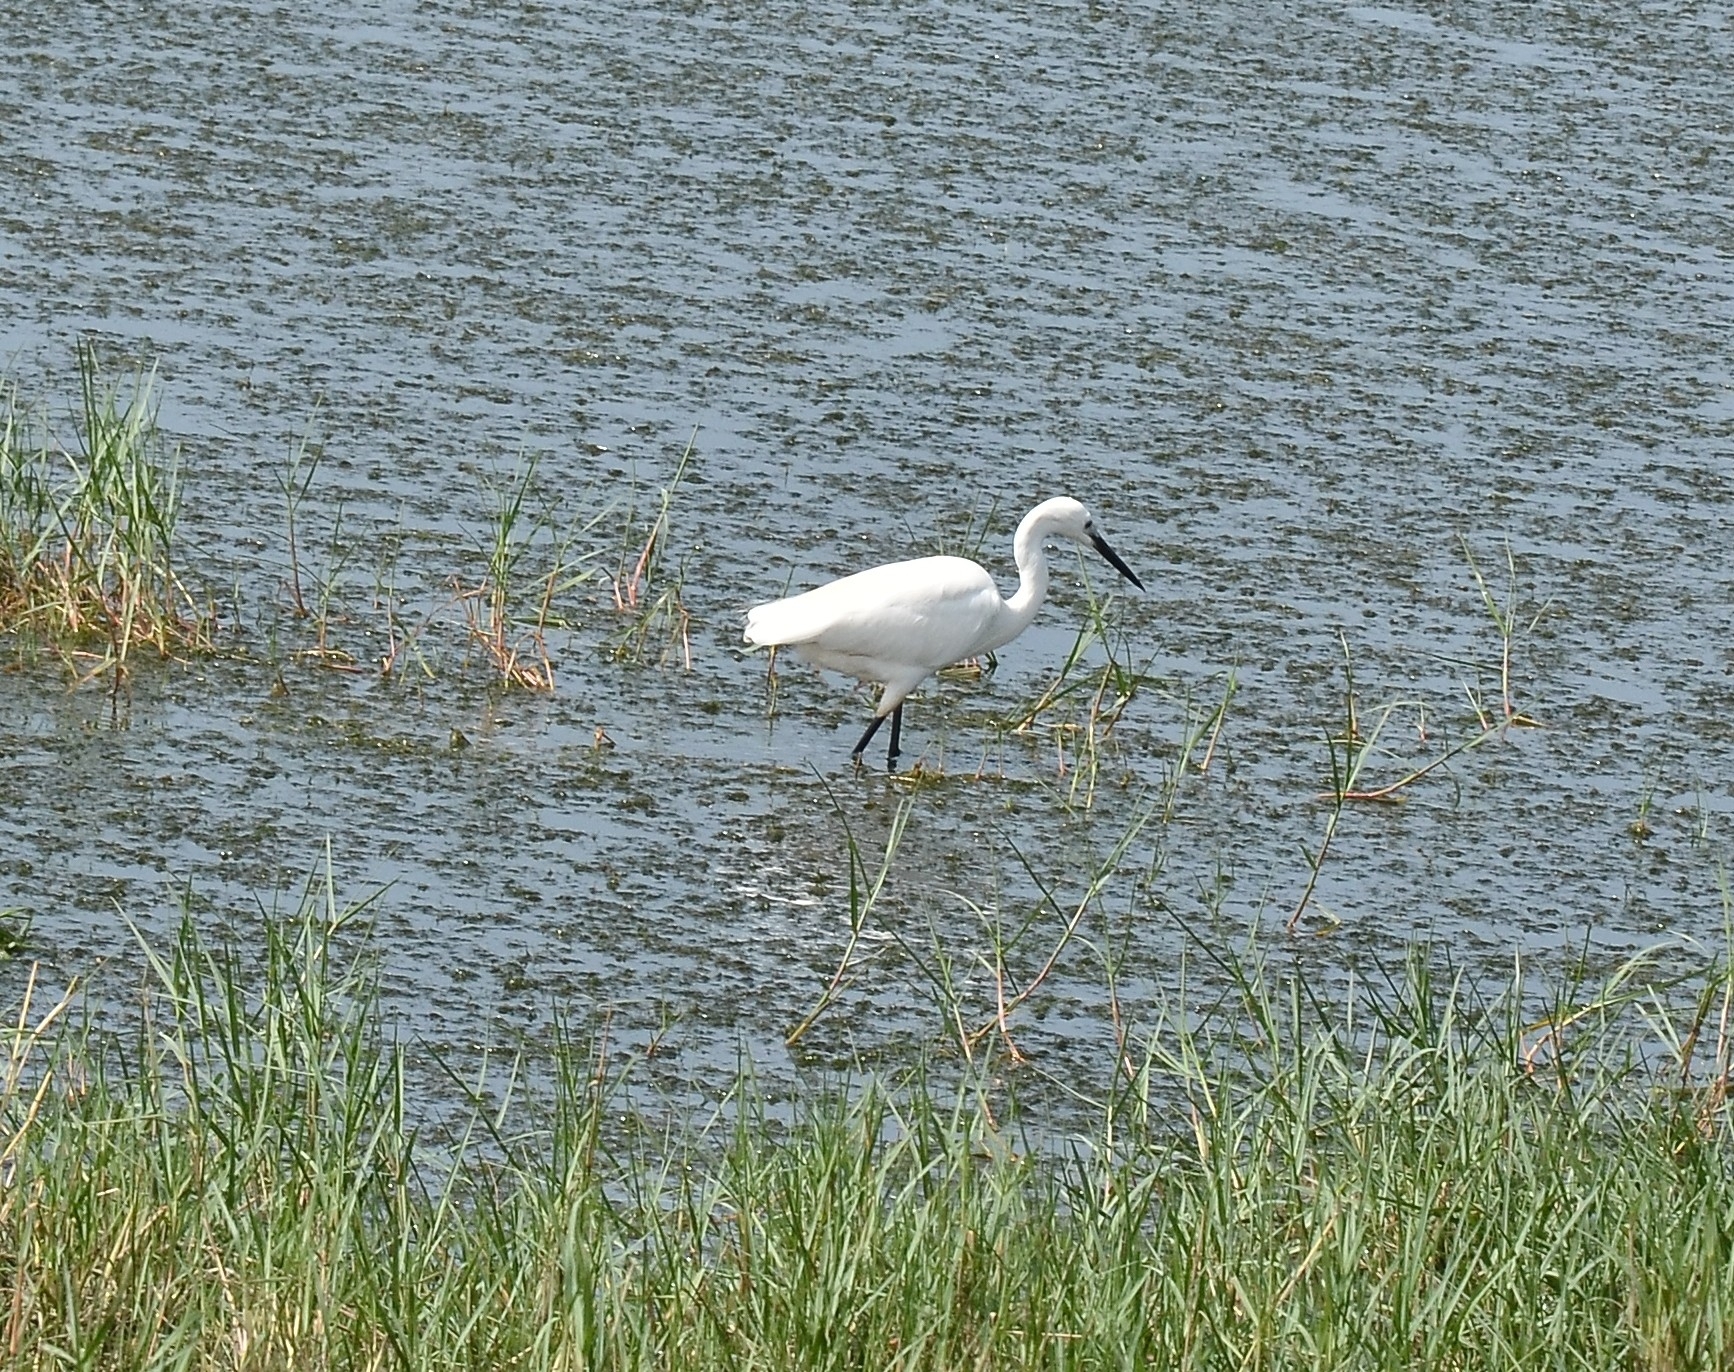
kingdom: Animalia
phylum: Chordata
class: Aves
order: Pelecaniformes
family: Ardeidae
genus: Egretta
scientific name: Egretta garzetta
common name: Little egret
